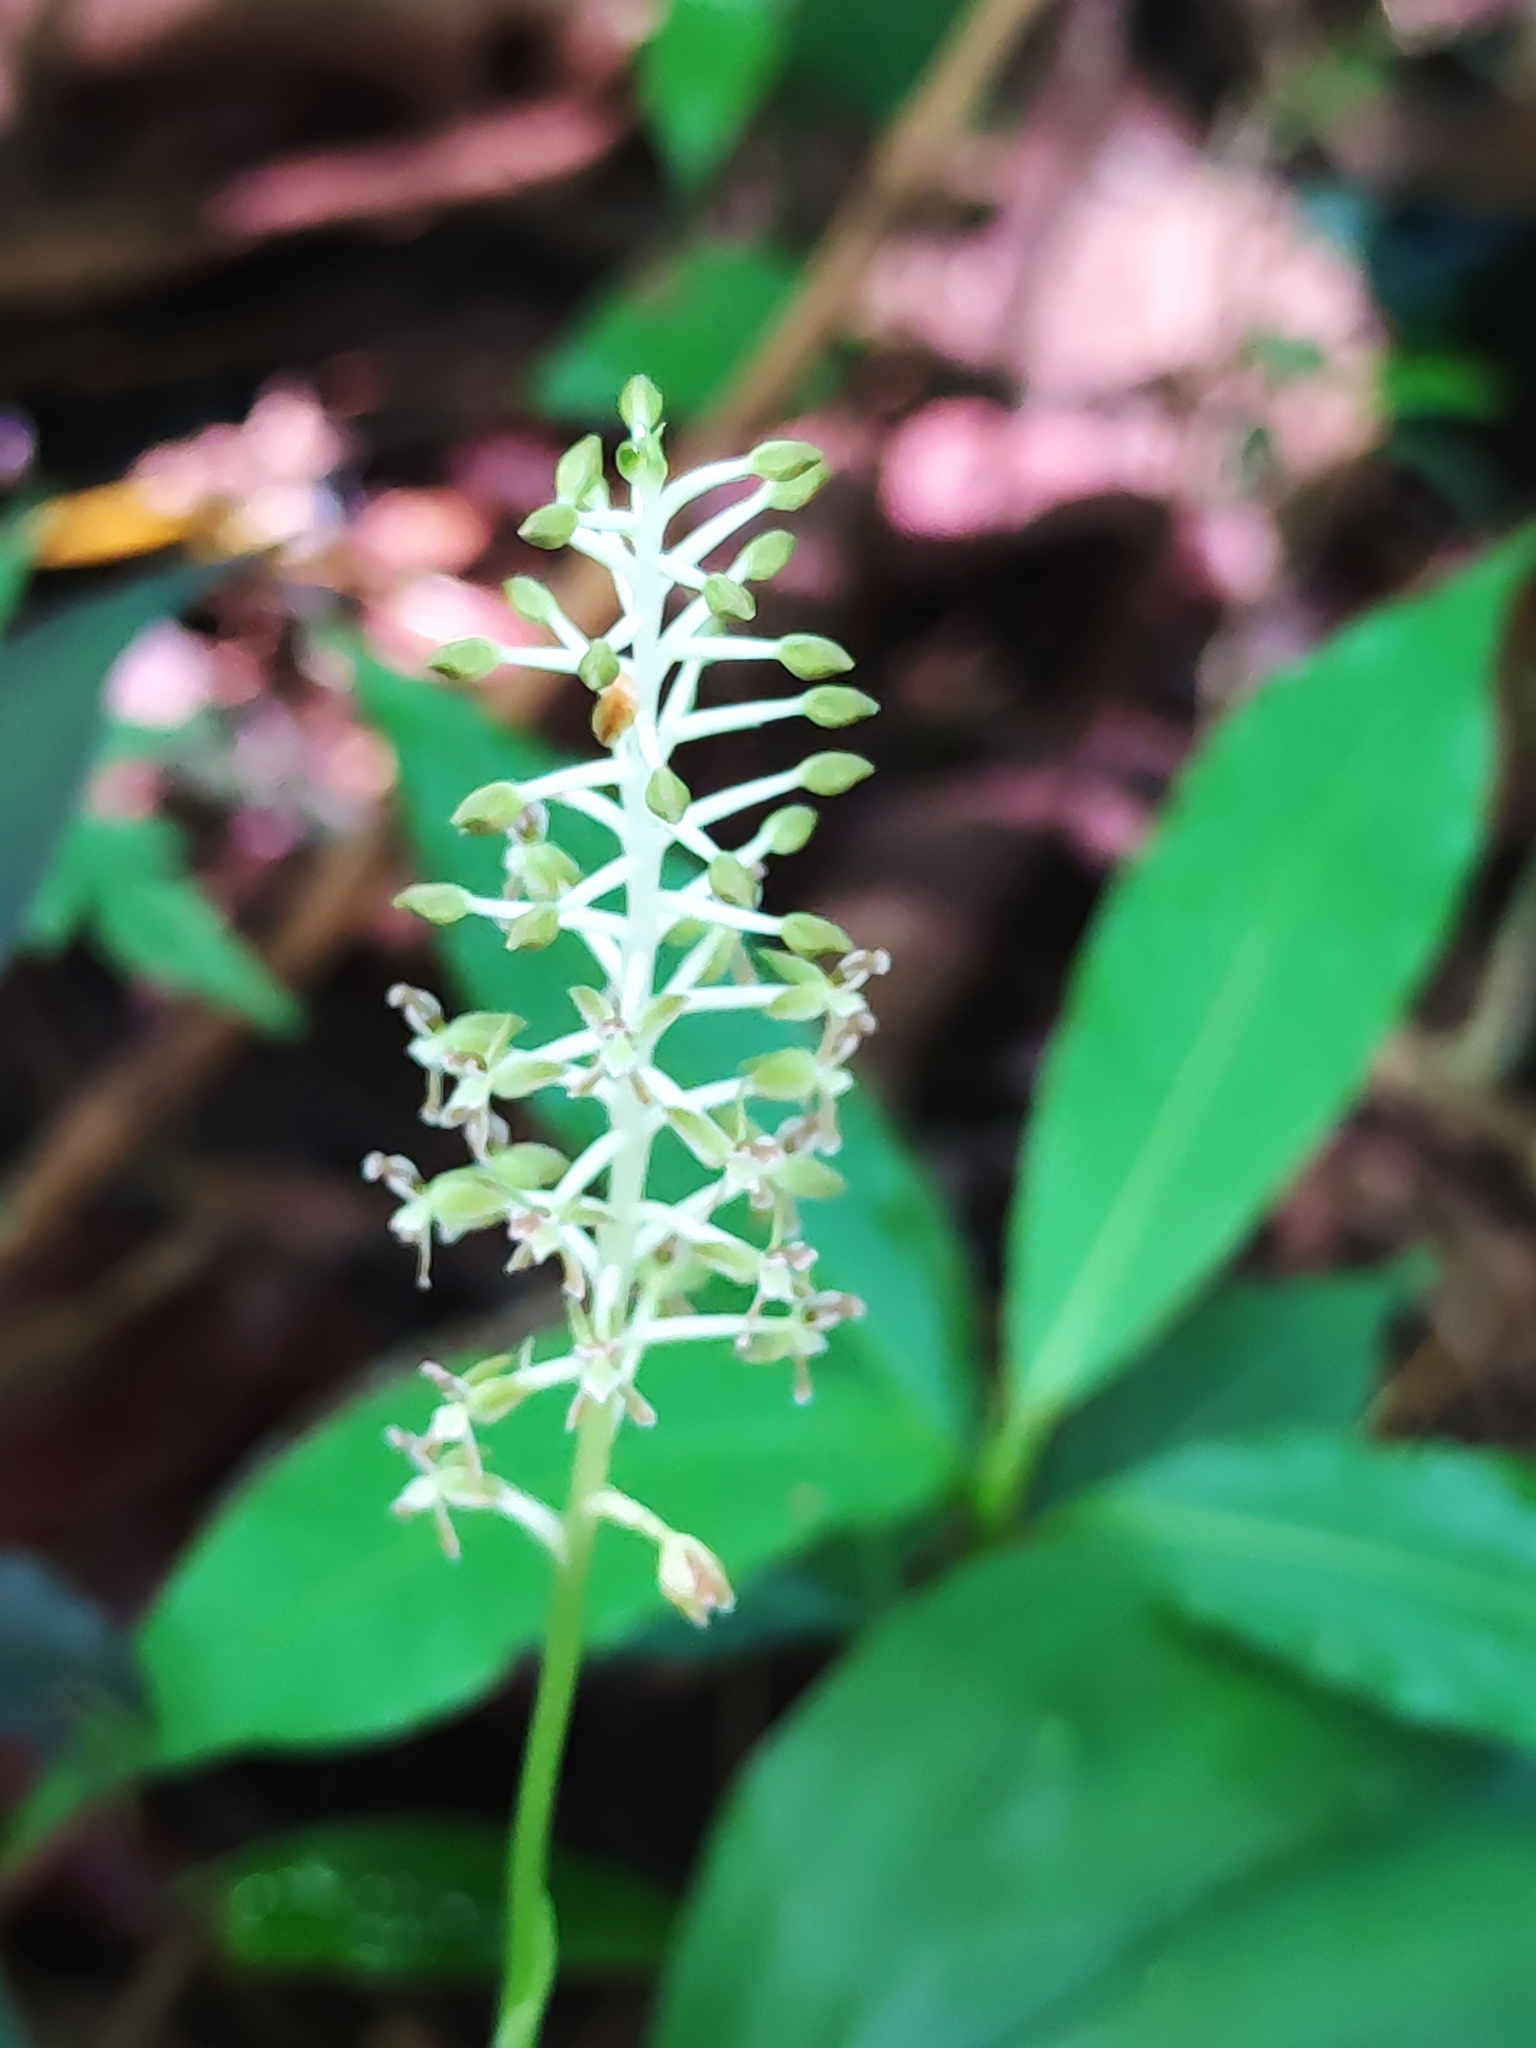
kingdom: Plantae
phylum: Tracheophyta
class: Liliopsida
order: Asparagales
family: Orchidaceae
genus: Cranichis
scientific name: Cranichis apiculata
